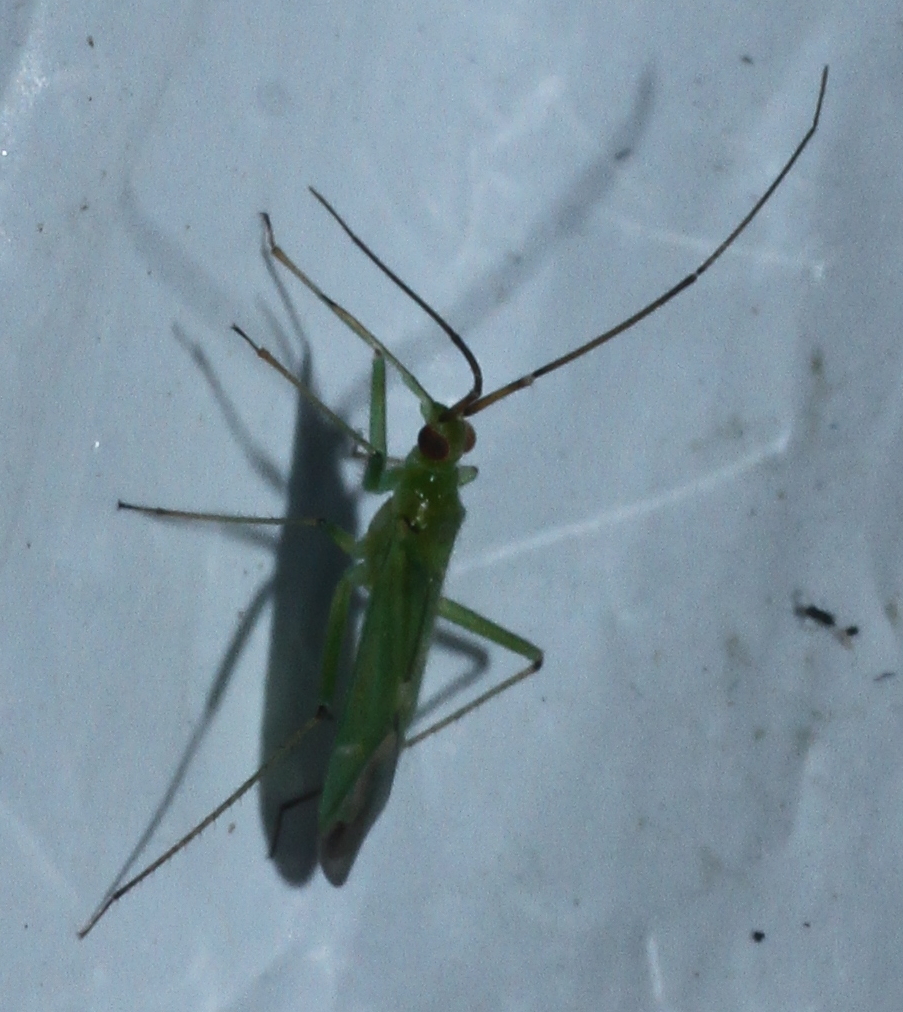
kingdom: Animalia
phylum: Arthropoda
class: Insecta
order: Hemiptera
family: Miridae
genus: Blepharidopterus
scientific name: Blepharidopterus angulatus
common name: Plant bug
